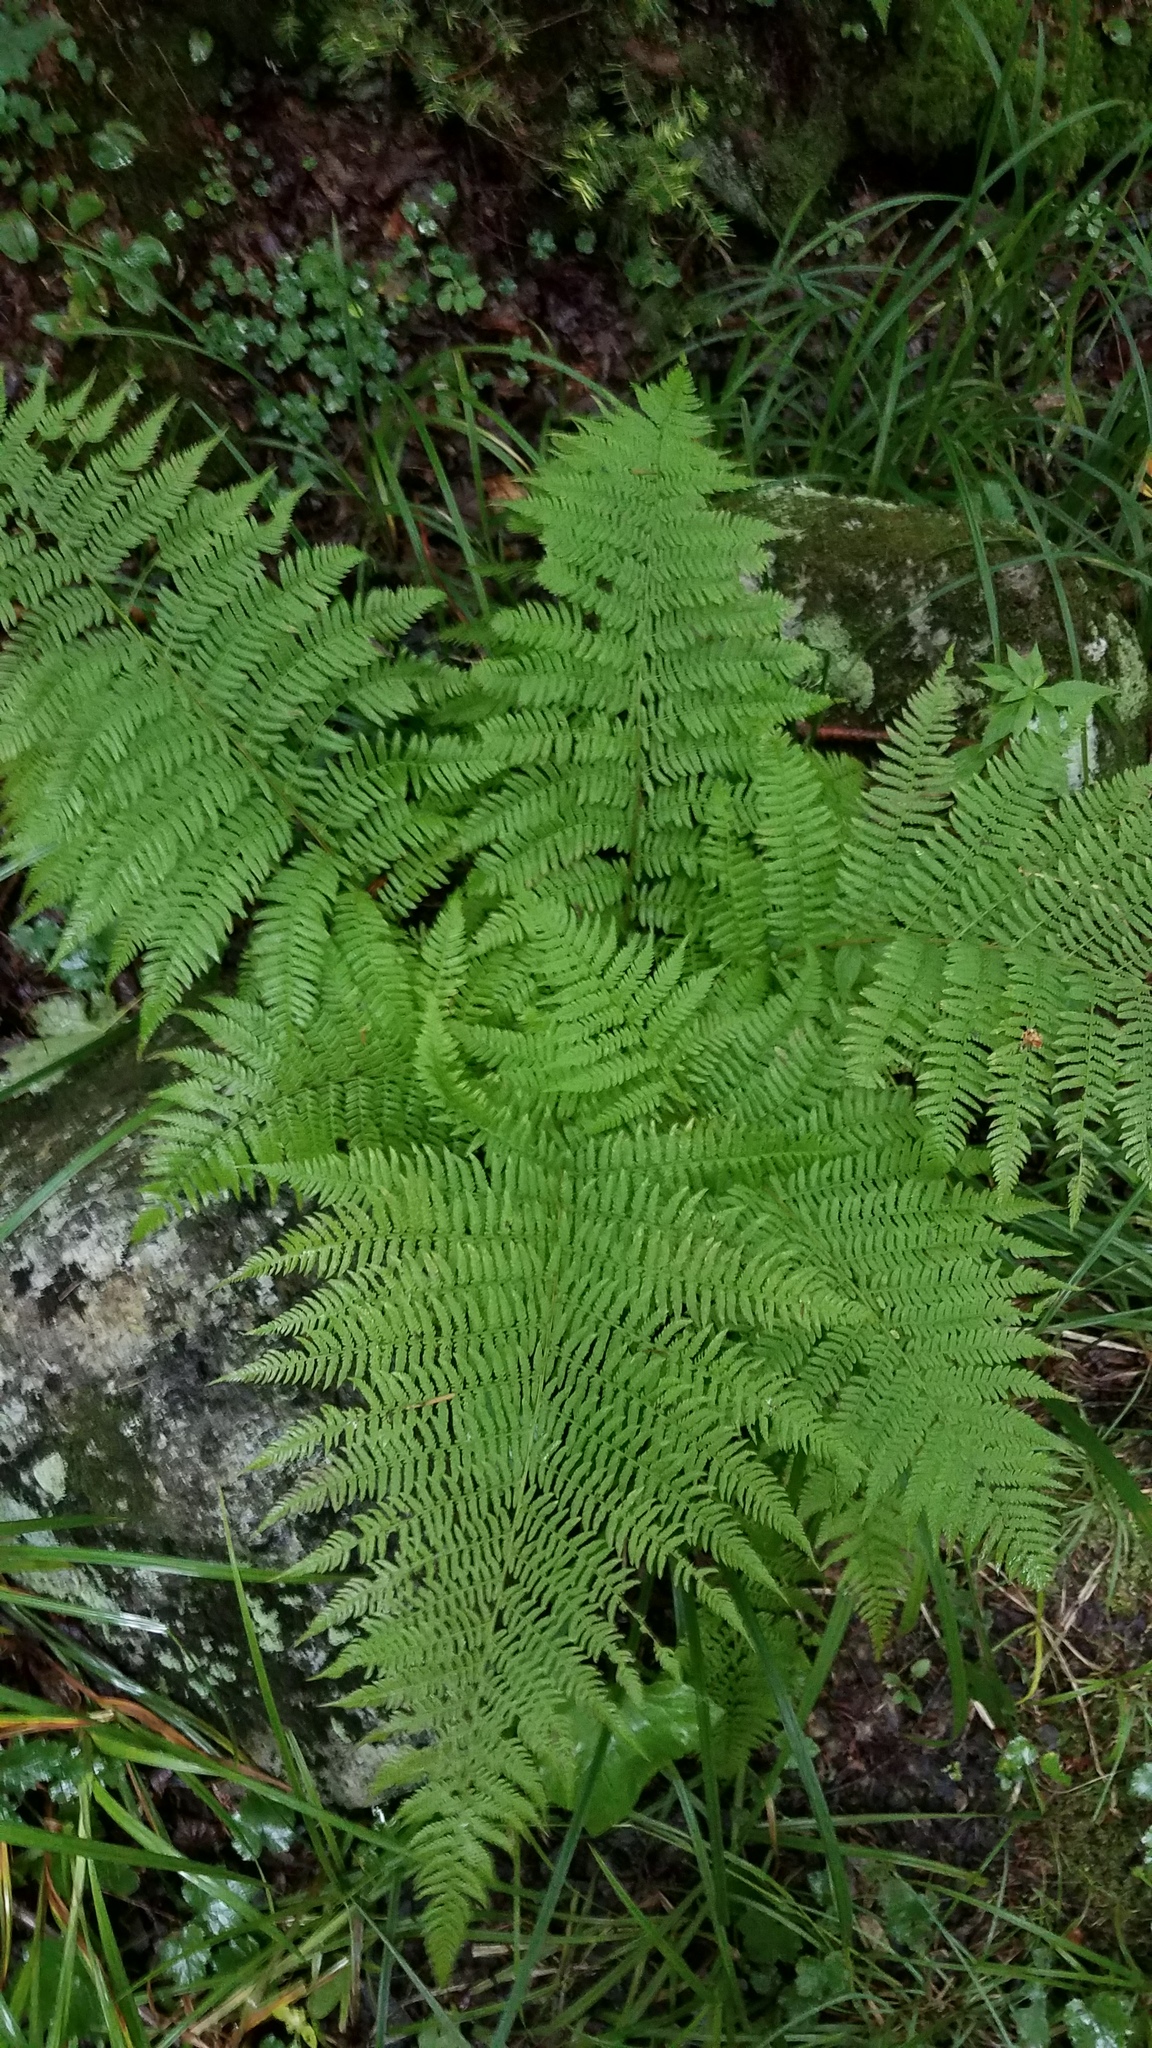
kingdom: Plantae
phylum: Tracheophyta
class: Polypodiopsida
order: Polypodiales
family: Athyriaceae
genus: Athyrium
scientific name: Athyrium angustum
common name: Northern lady fern
